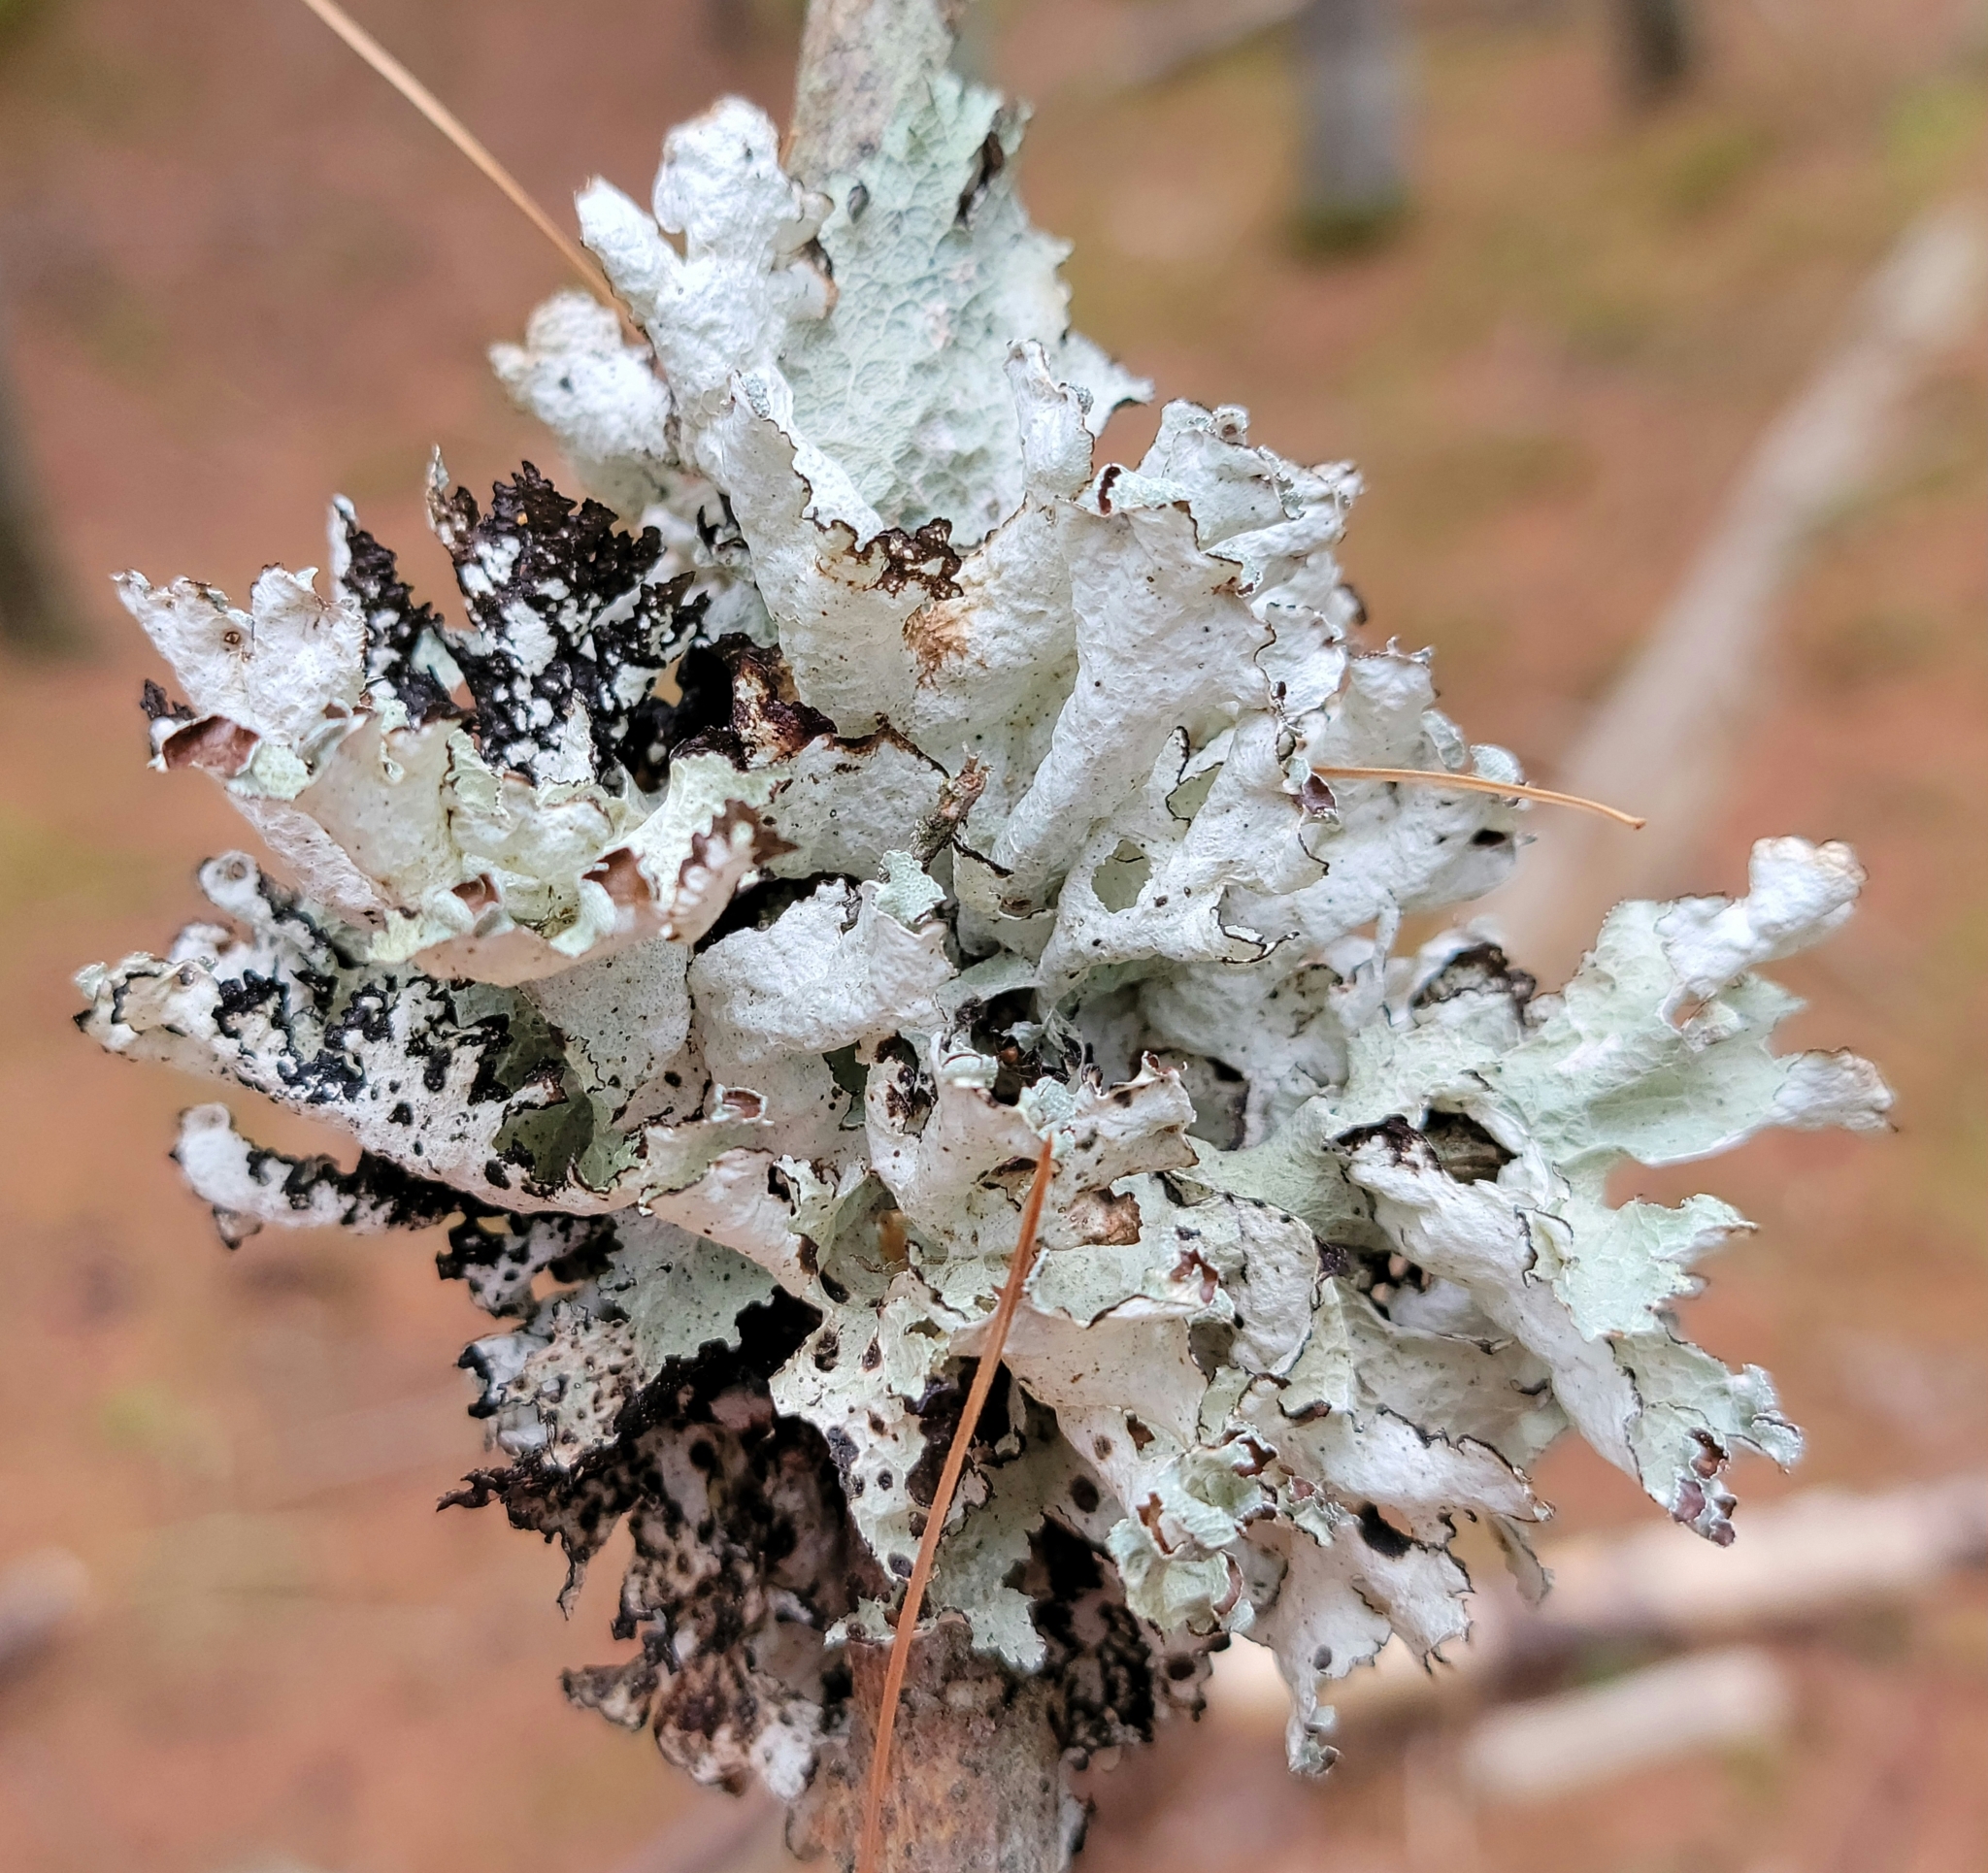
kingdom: Fungi
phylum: Ascomycota
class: Lecanoromycetes
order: Lecanorales
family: Parmeliaceae
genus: Platismatia
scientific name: Platismatia tuckermanii
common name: Crumpled rag lichen
